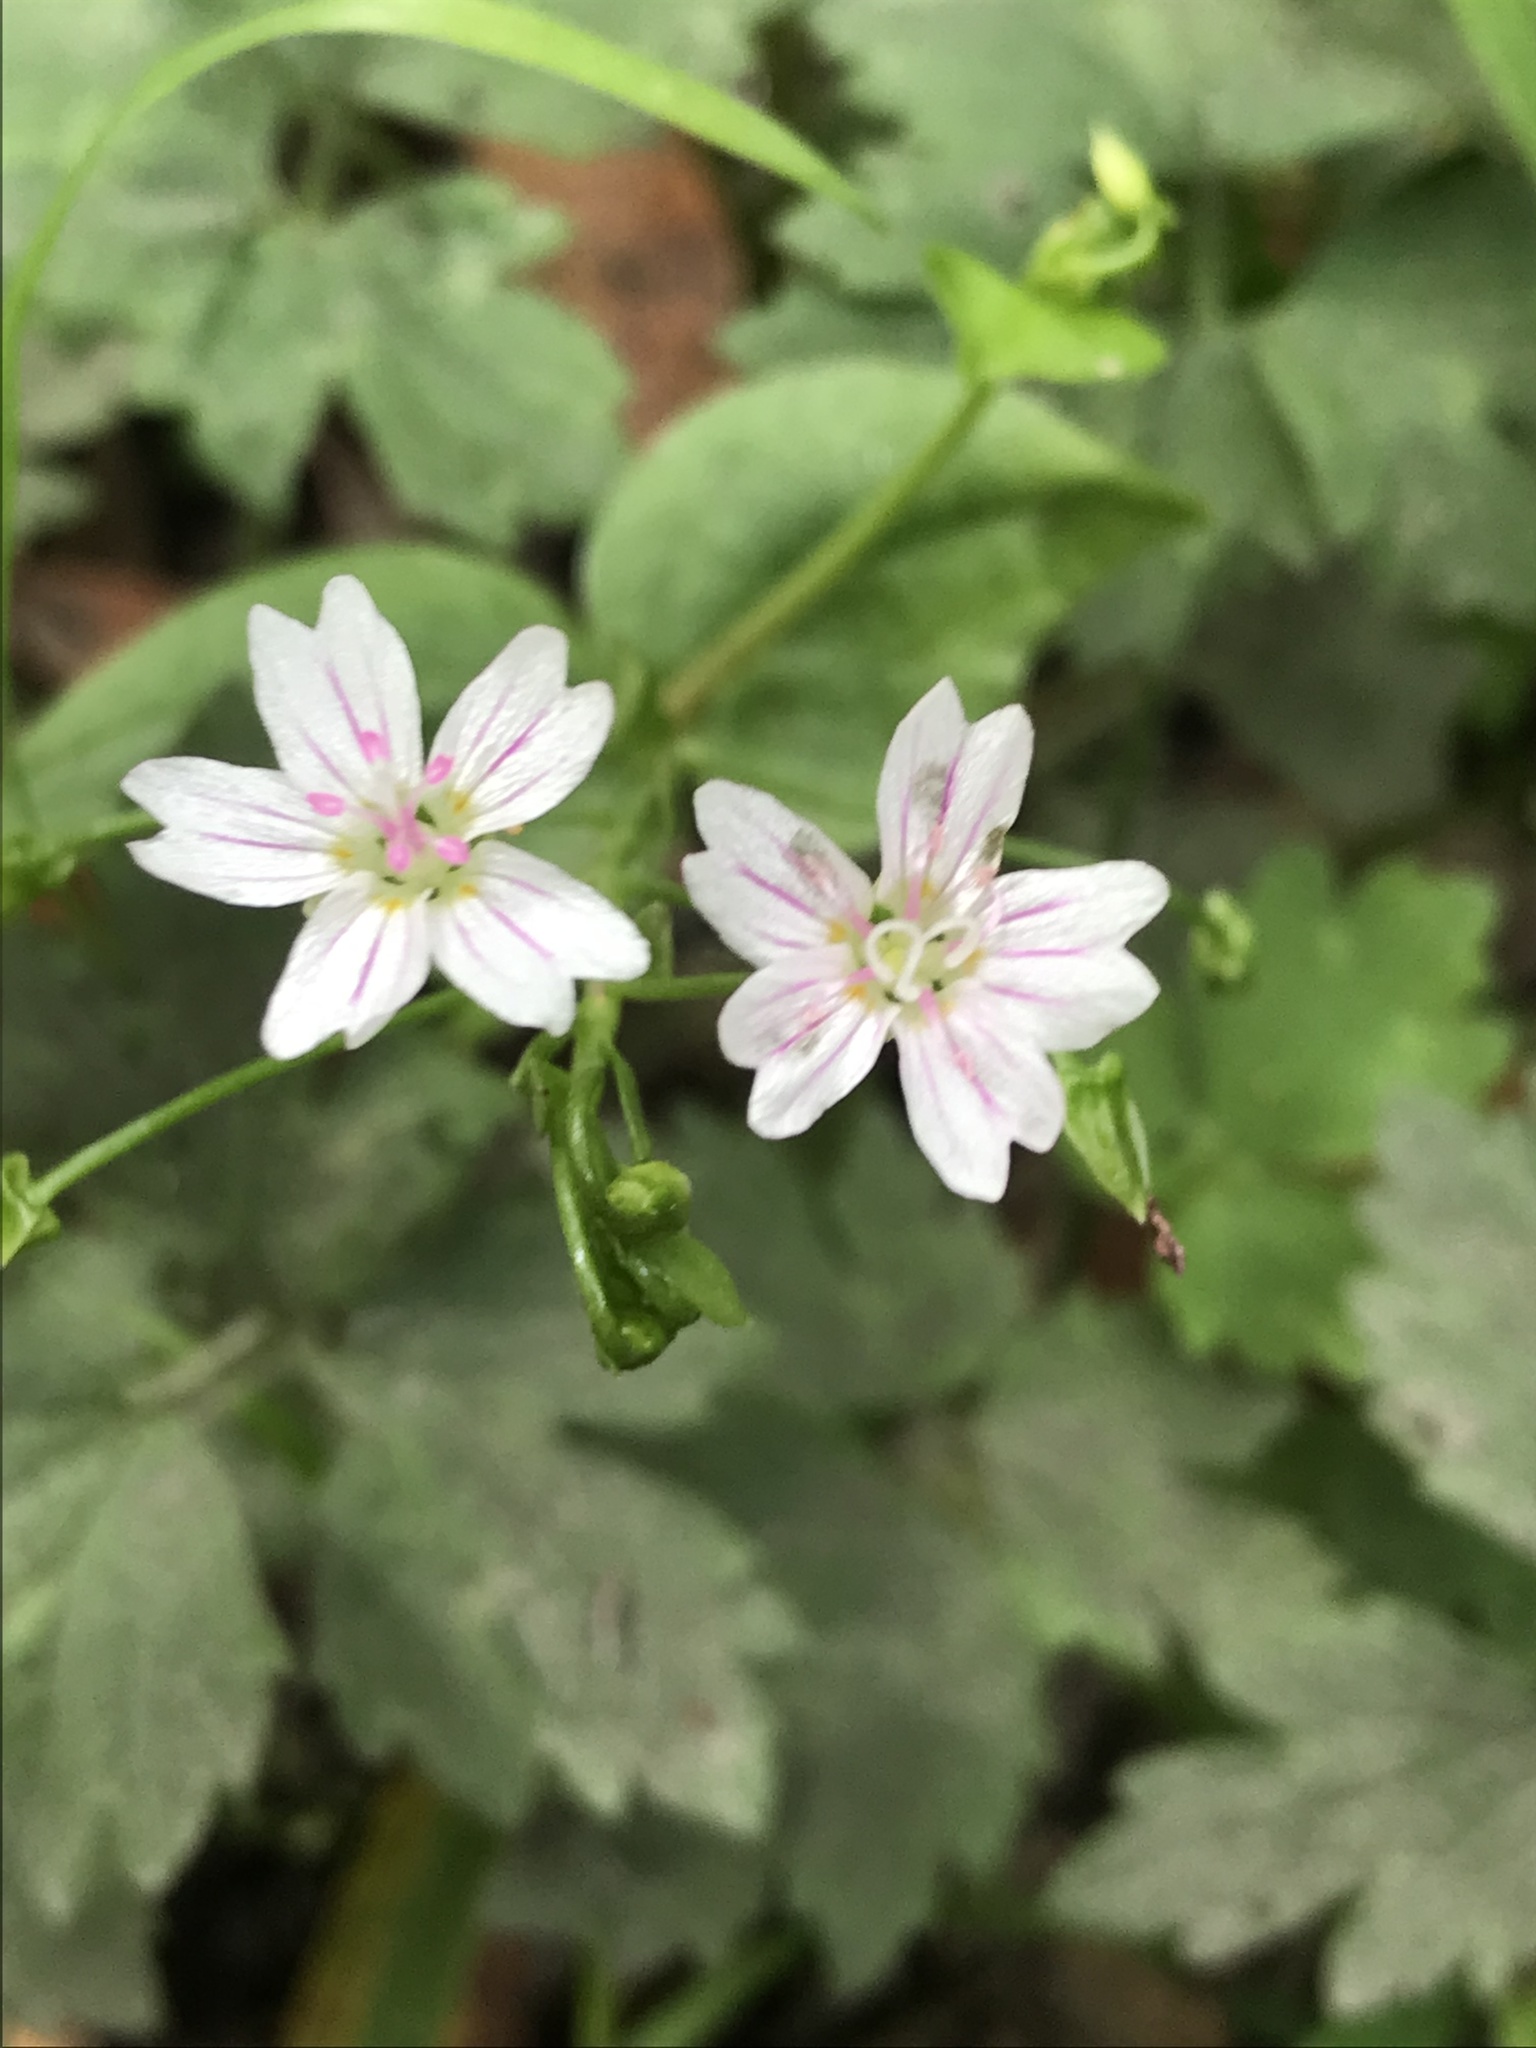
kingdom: Plantae
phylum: Tracheophyta
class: Magnoliopsida
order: Caryophyllales
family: Montiaceae
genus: Claytonia
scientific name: Claytonia sibirica
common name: Pink purslane
